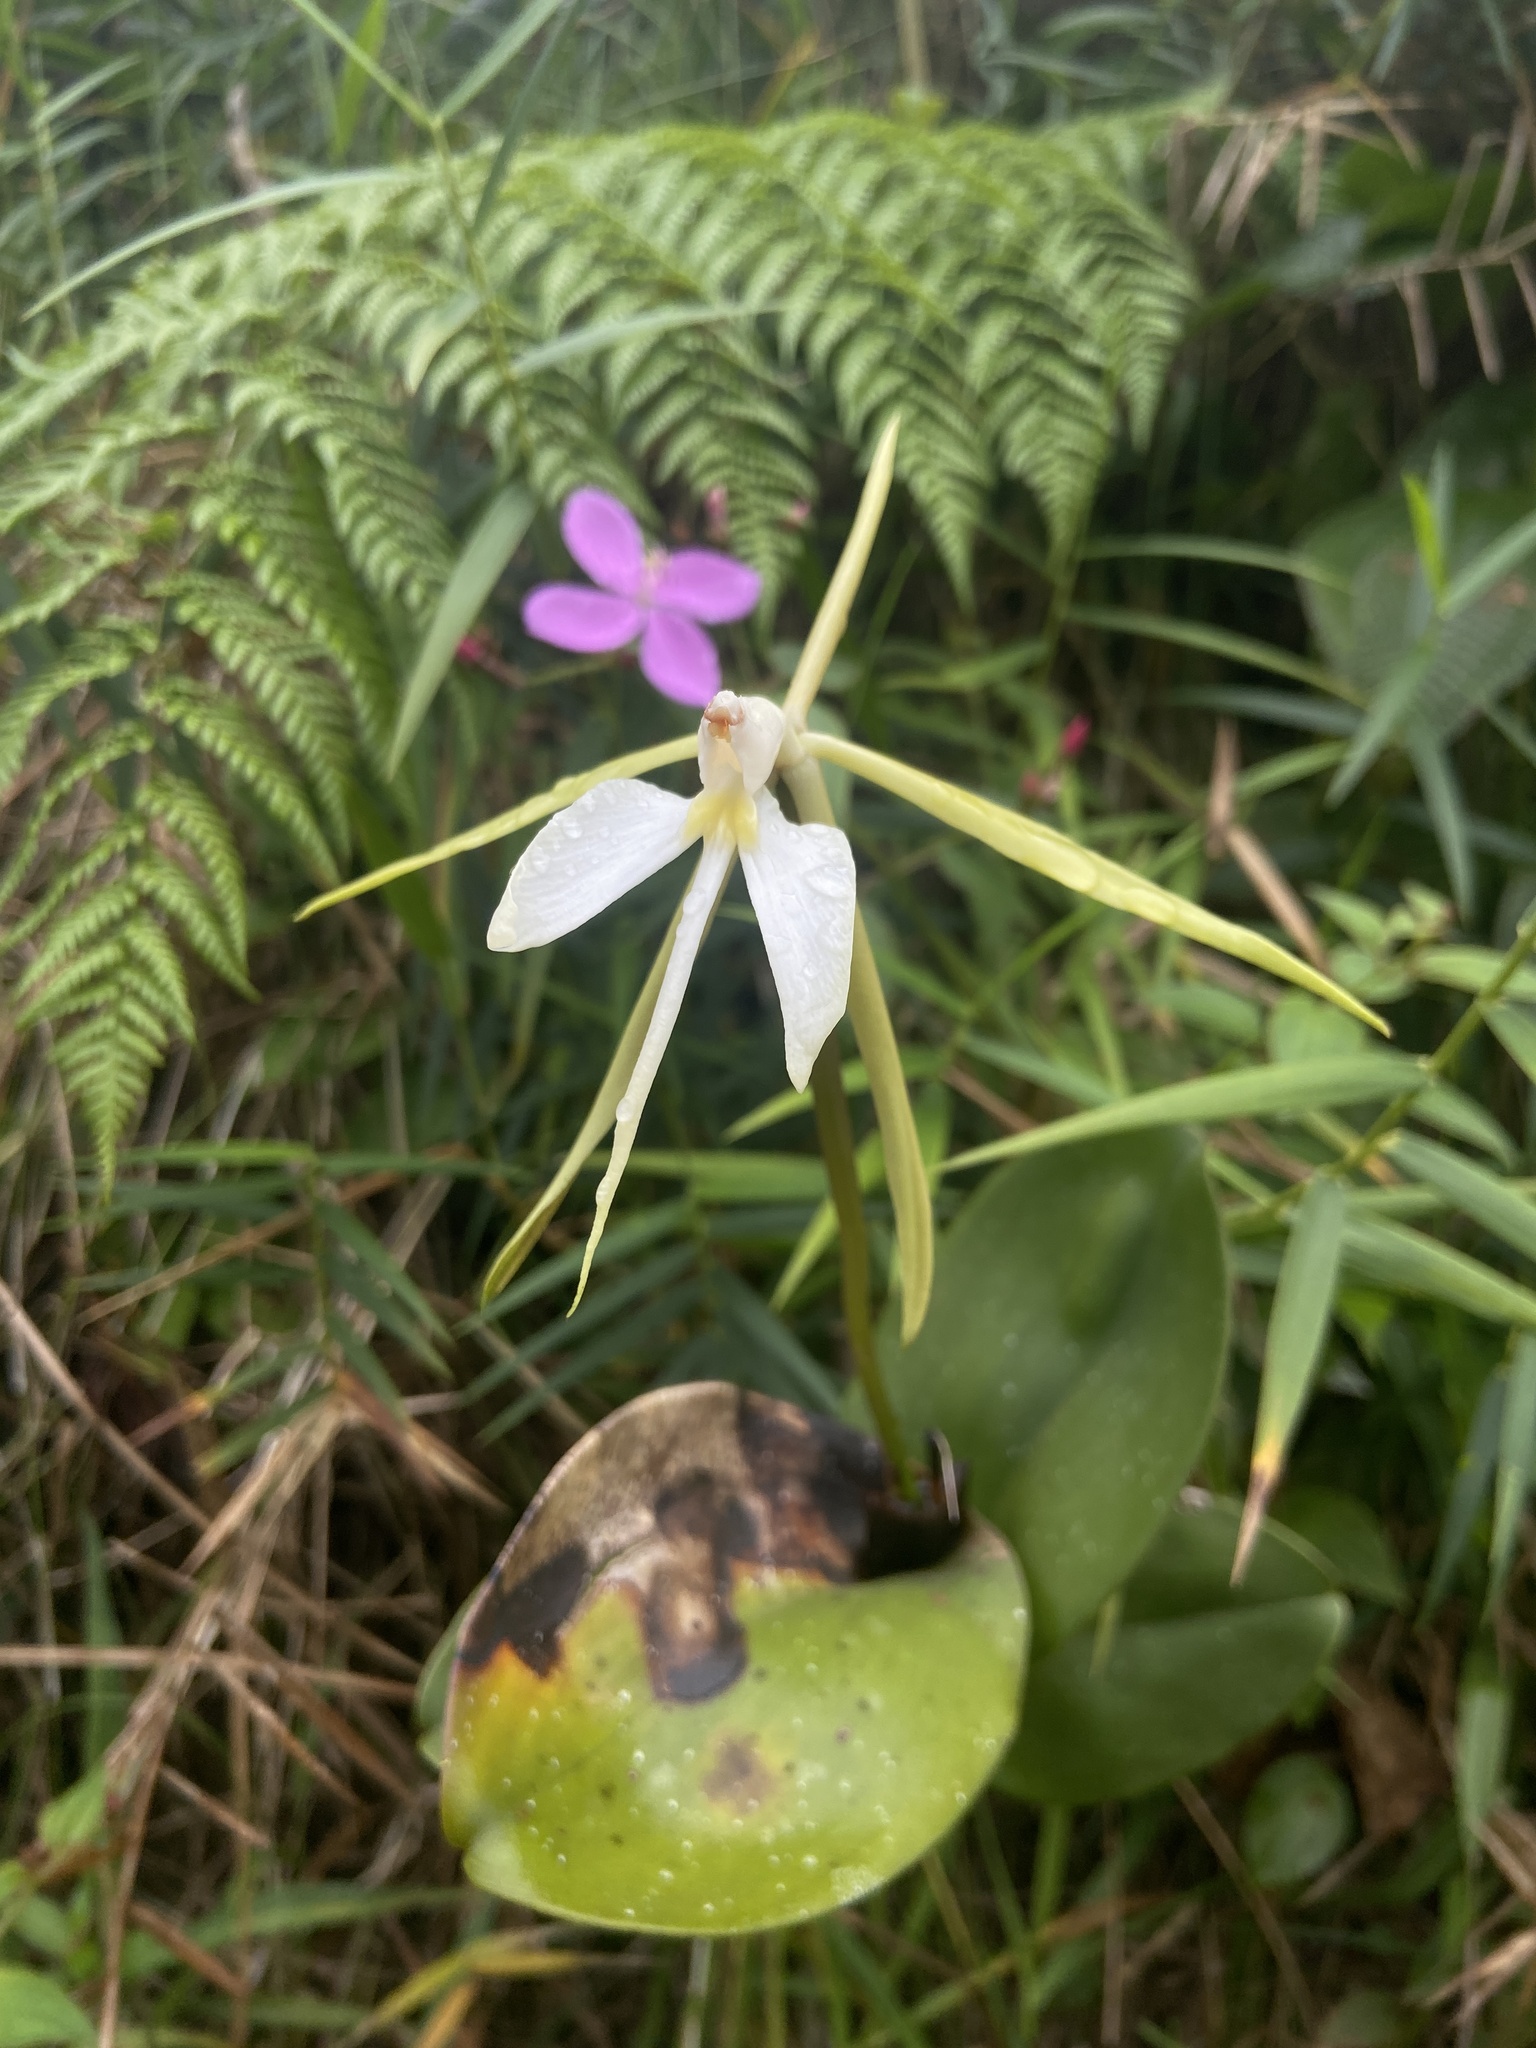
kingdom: Plantae
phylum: Tracheophyta
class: Liliopsida
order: Asparagales
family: Orchidaceae
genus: Epidendrum
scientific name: Epidendrum angustilobum
